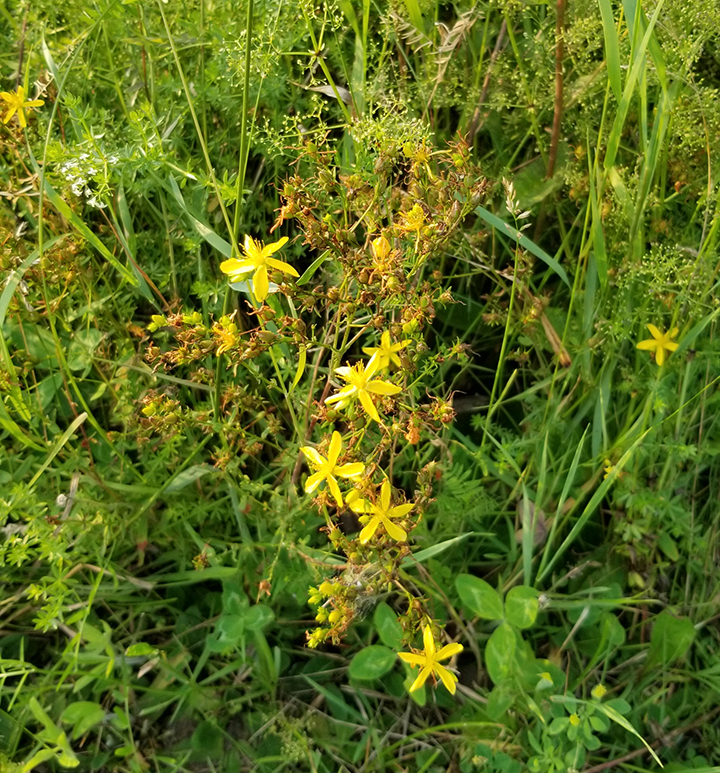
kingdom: Plantae
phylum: Tracheophyta
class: Magnoliopsida
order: Malpighiales
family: Hypericaceae
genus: Hypericum
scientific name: Hypericum perforatum
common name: Common st. johnswort
